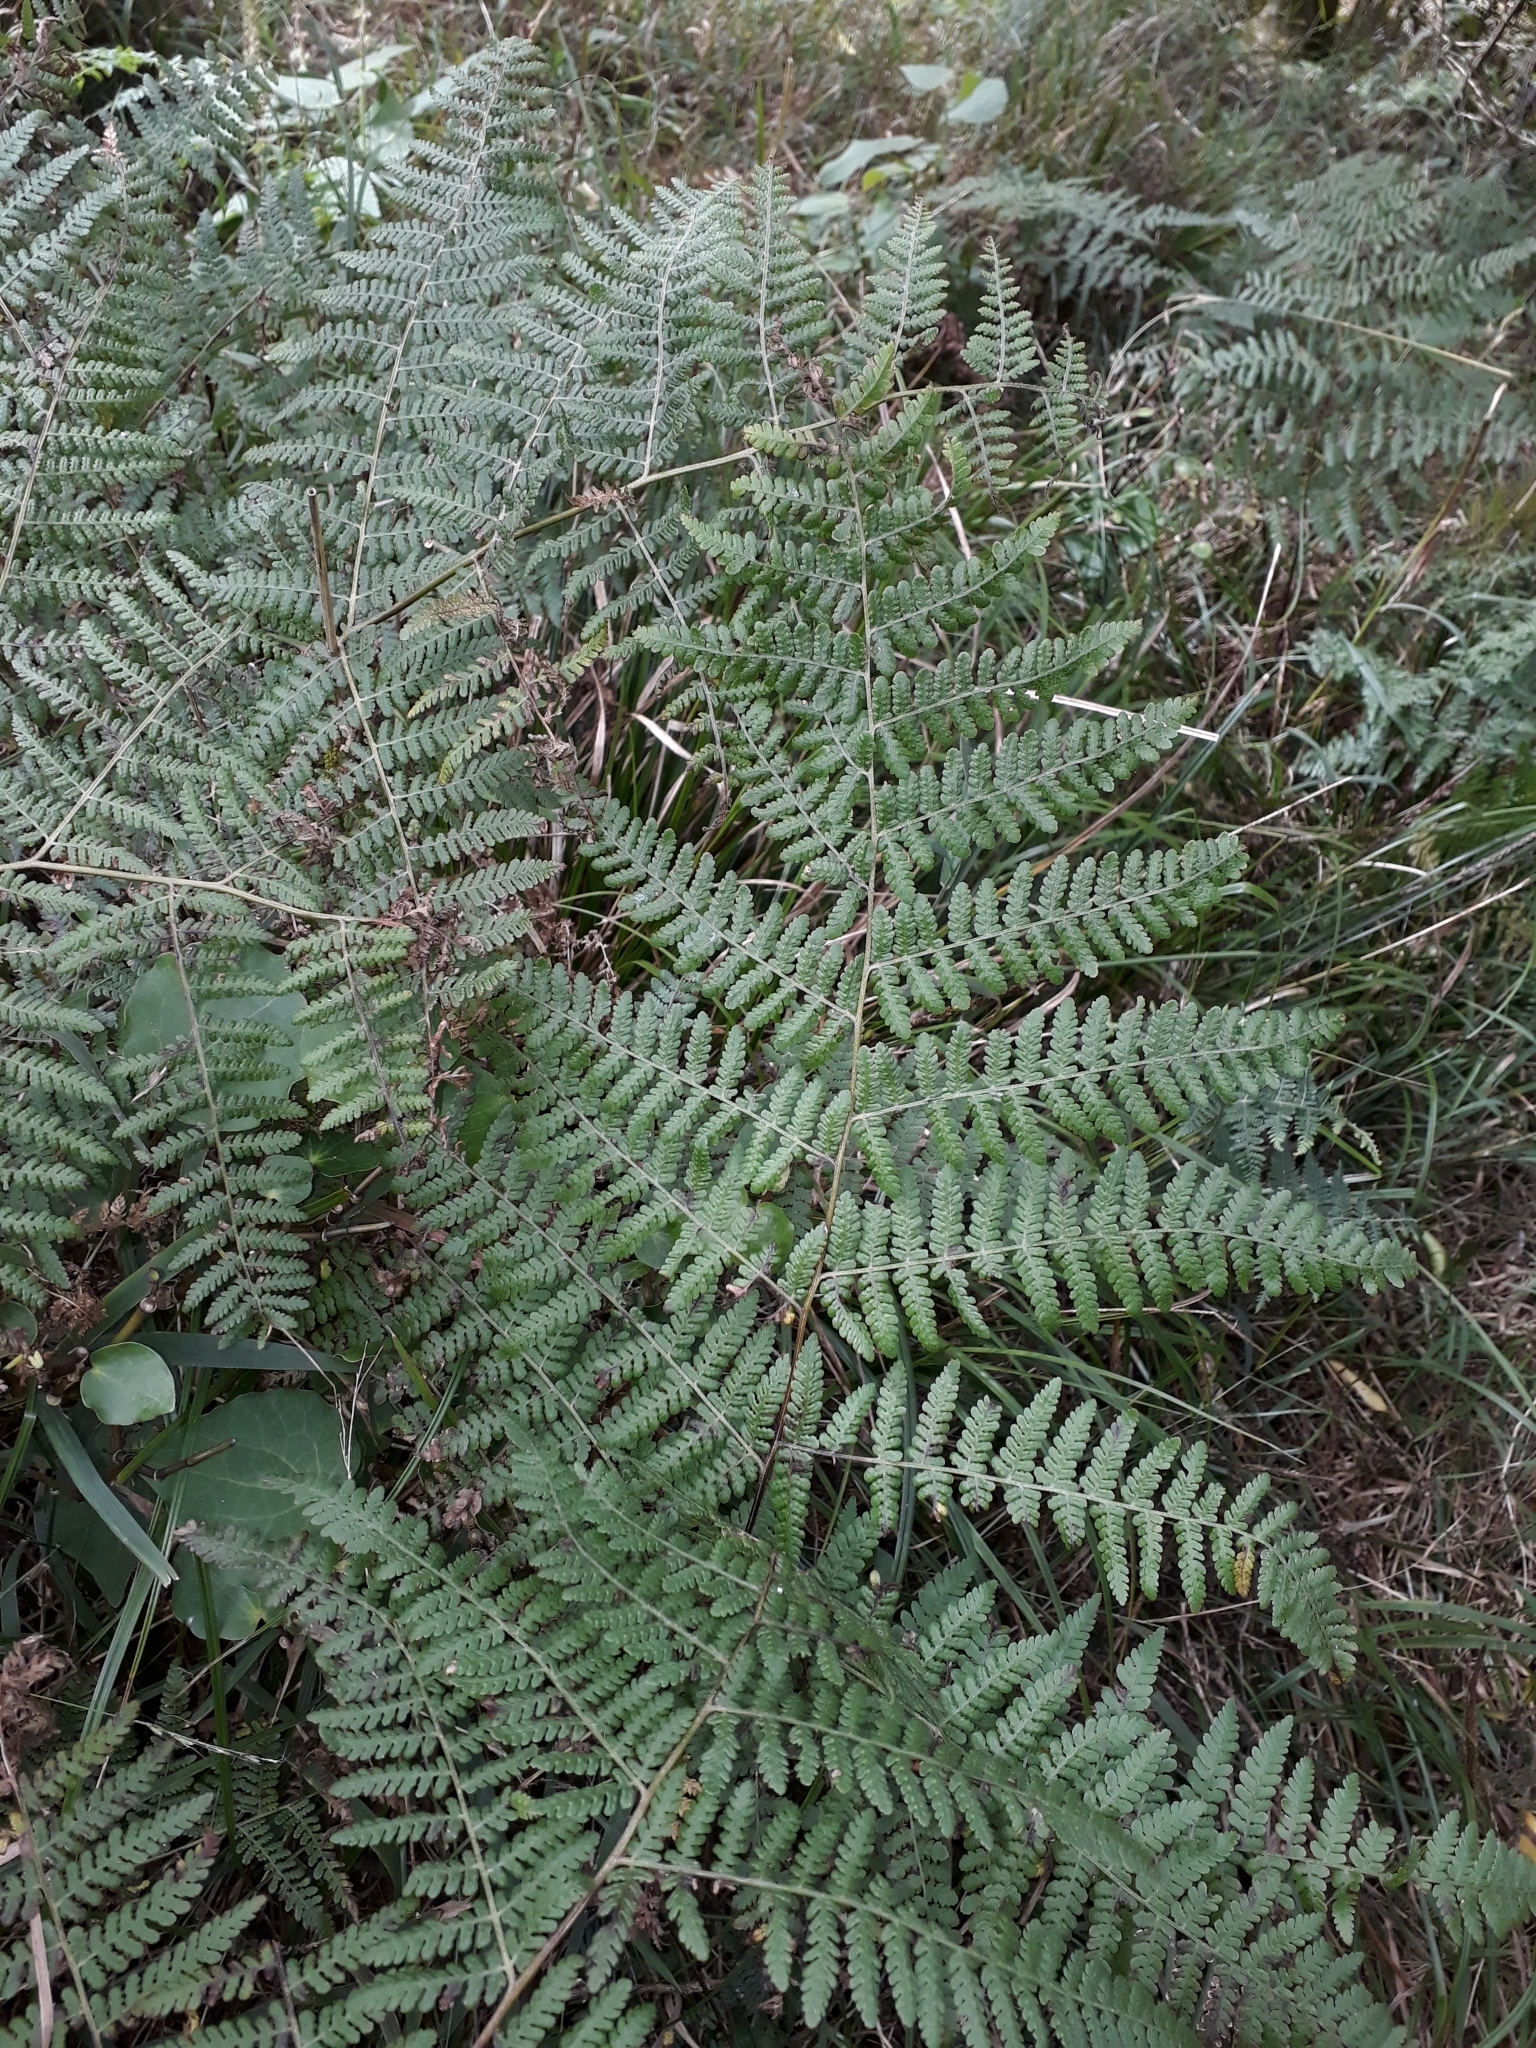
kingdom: Plantae
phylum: Tracheophyta
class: Polypodiopsida
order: Polypodiales
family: Dennstaedtiaceae
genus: Hypolepis
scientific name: Hypolepis ambigua
